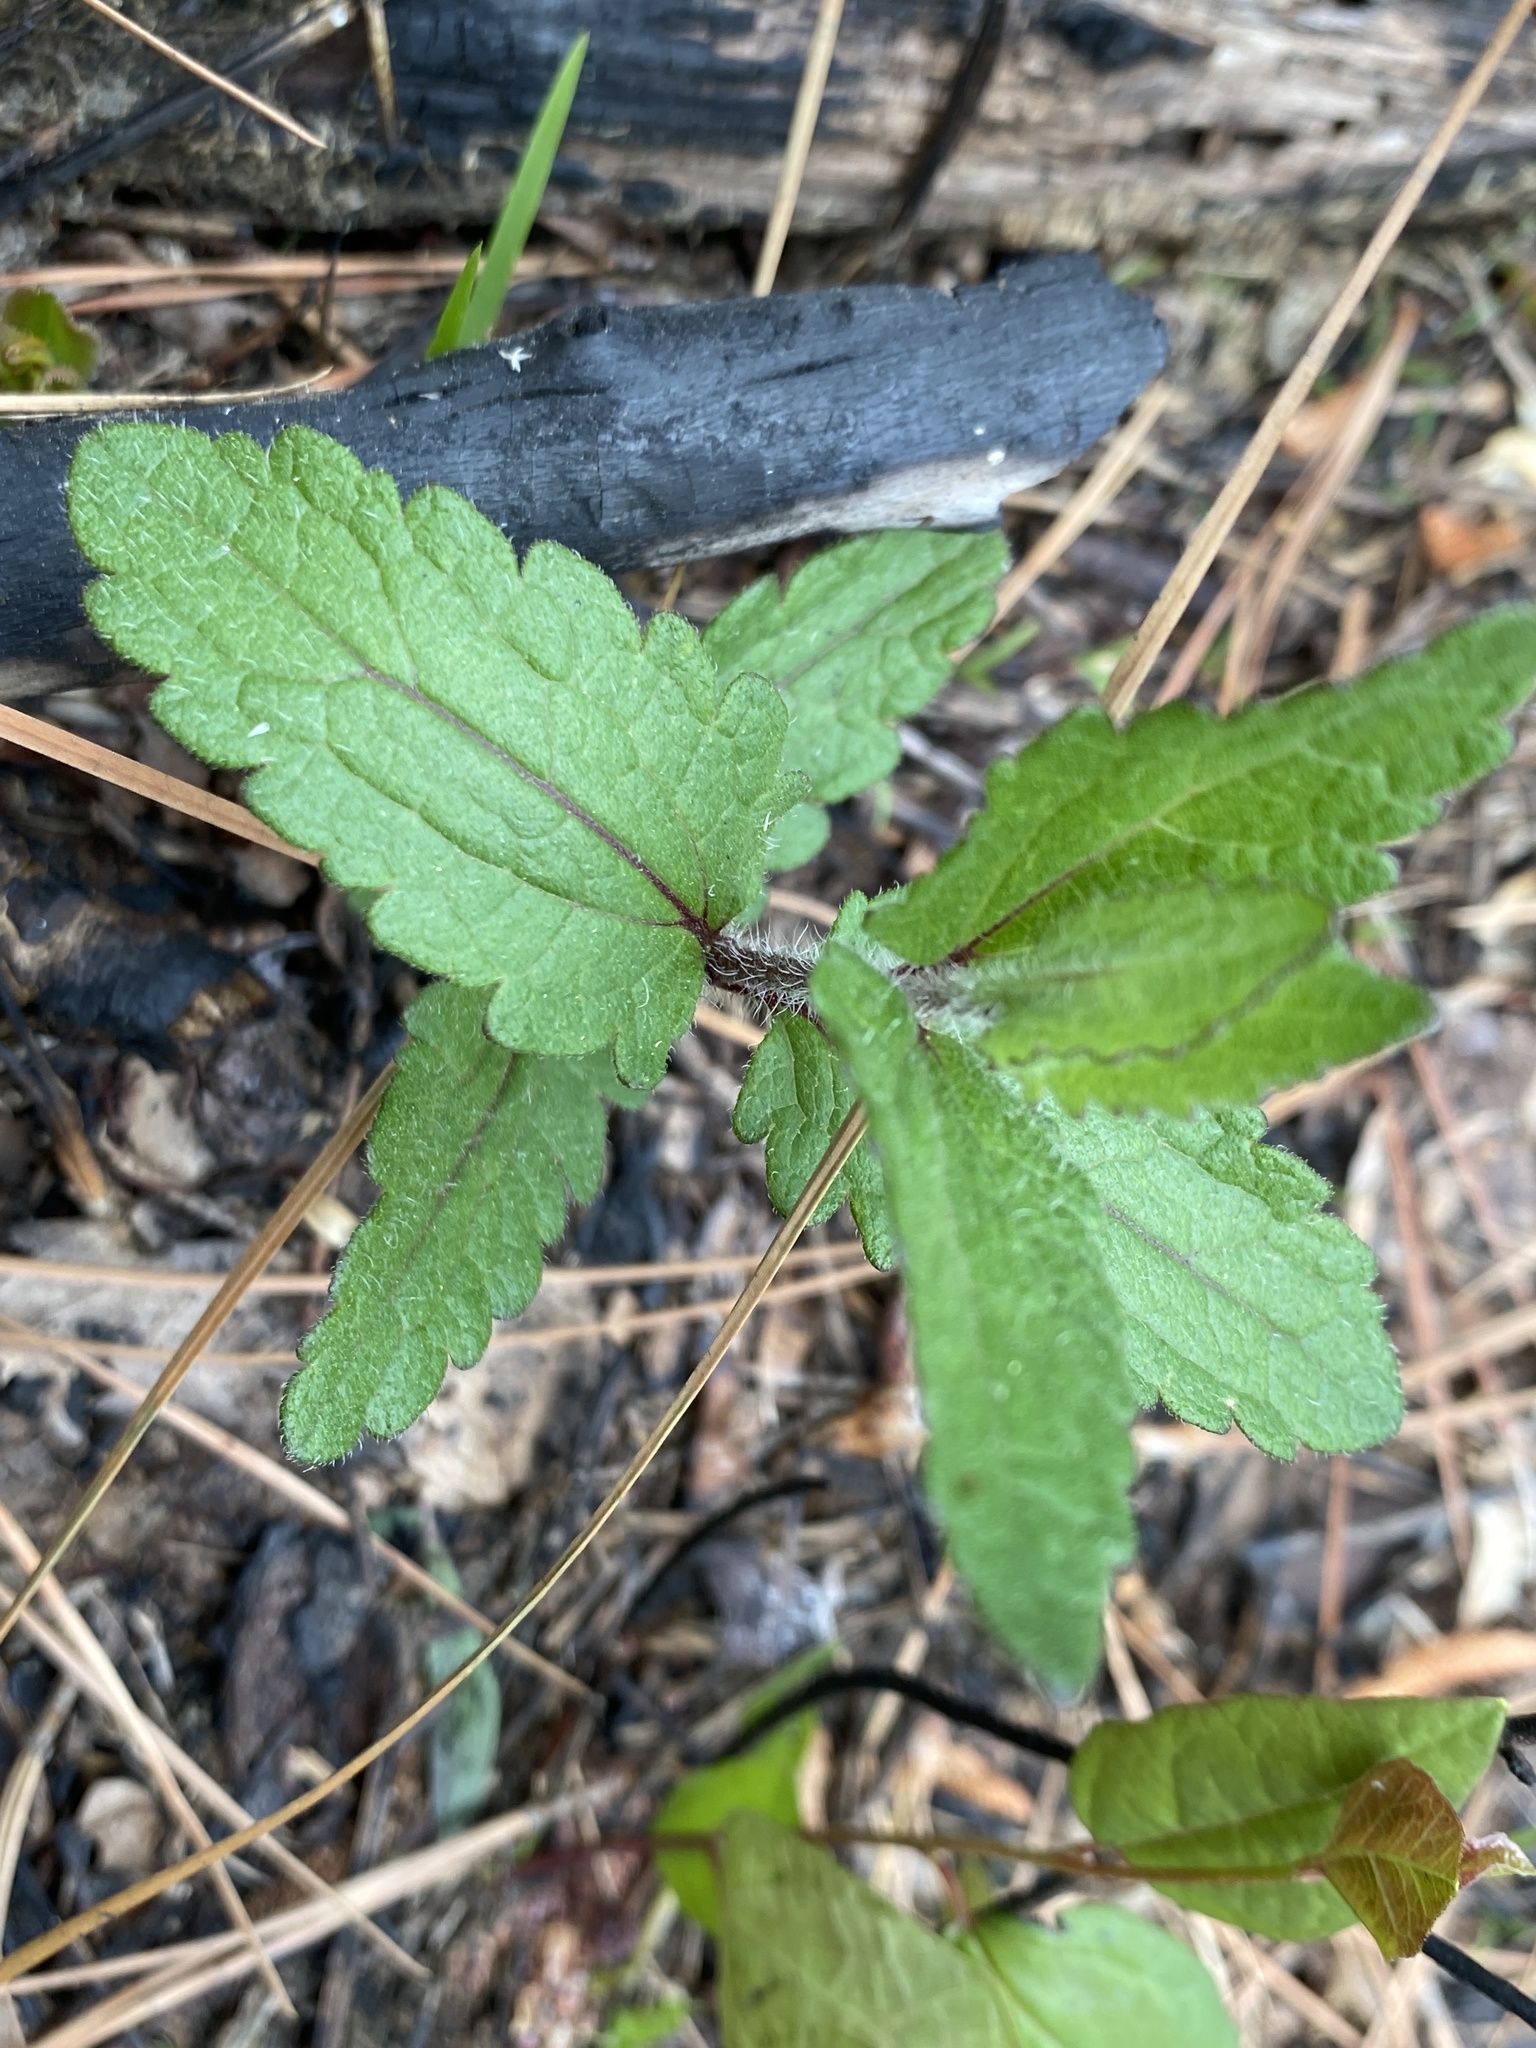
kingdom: Plantae
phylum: Tracheophyta
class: Magnoliopsida
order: Asterales
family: Asteraceae
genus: Eupatorium
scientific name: Eupatorium pilosum
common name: Rough boneset
